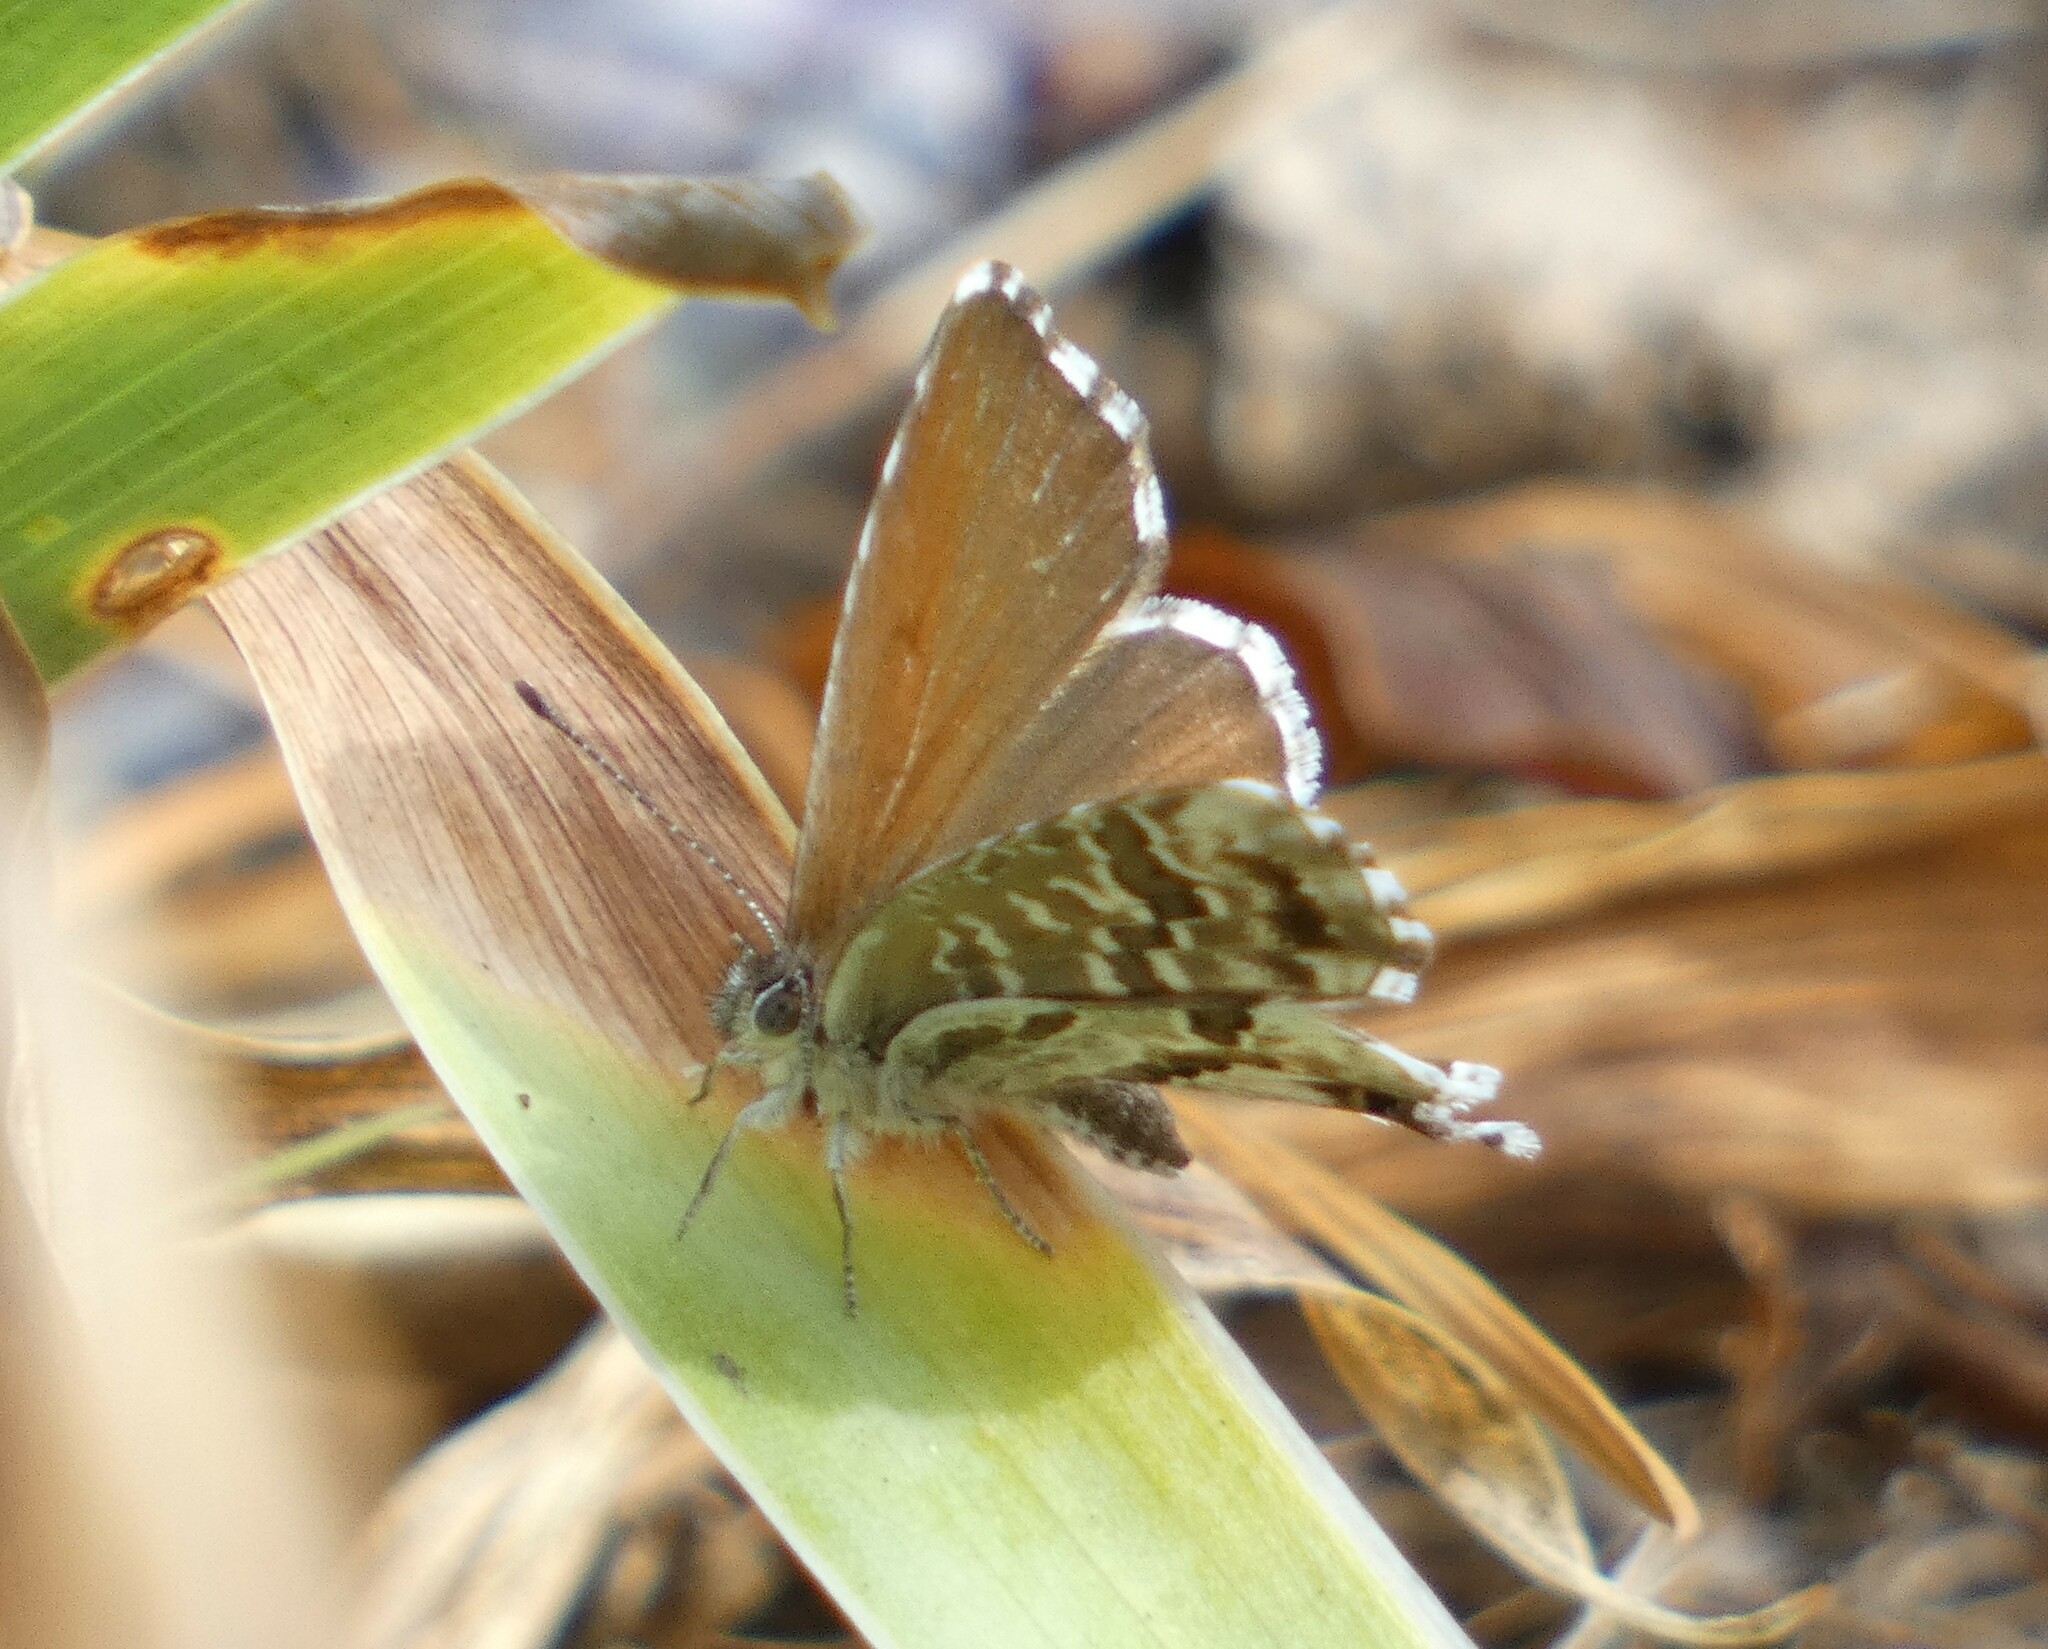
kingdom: Animalia
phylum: Arthropoda
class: Insecta
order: Lepidoptera
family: Lycaenidae
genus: Cacyreus
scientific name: Cacyreus marshalli
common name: Geranium bronze
